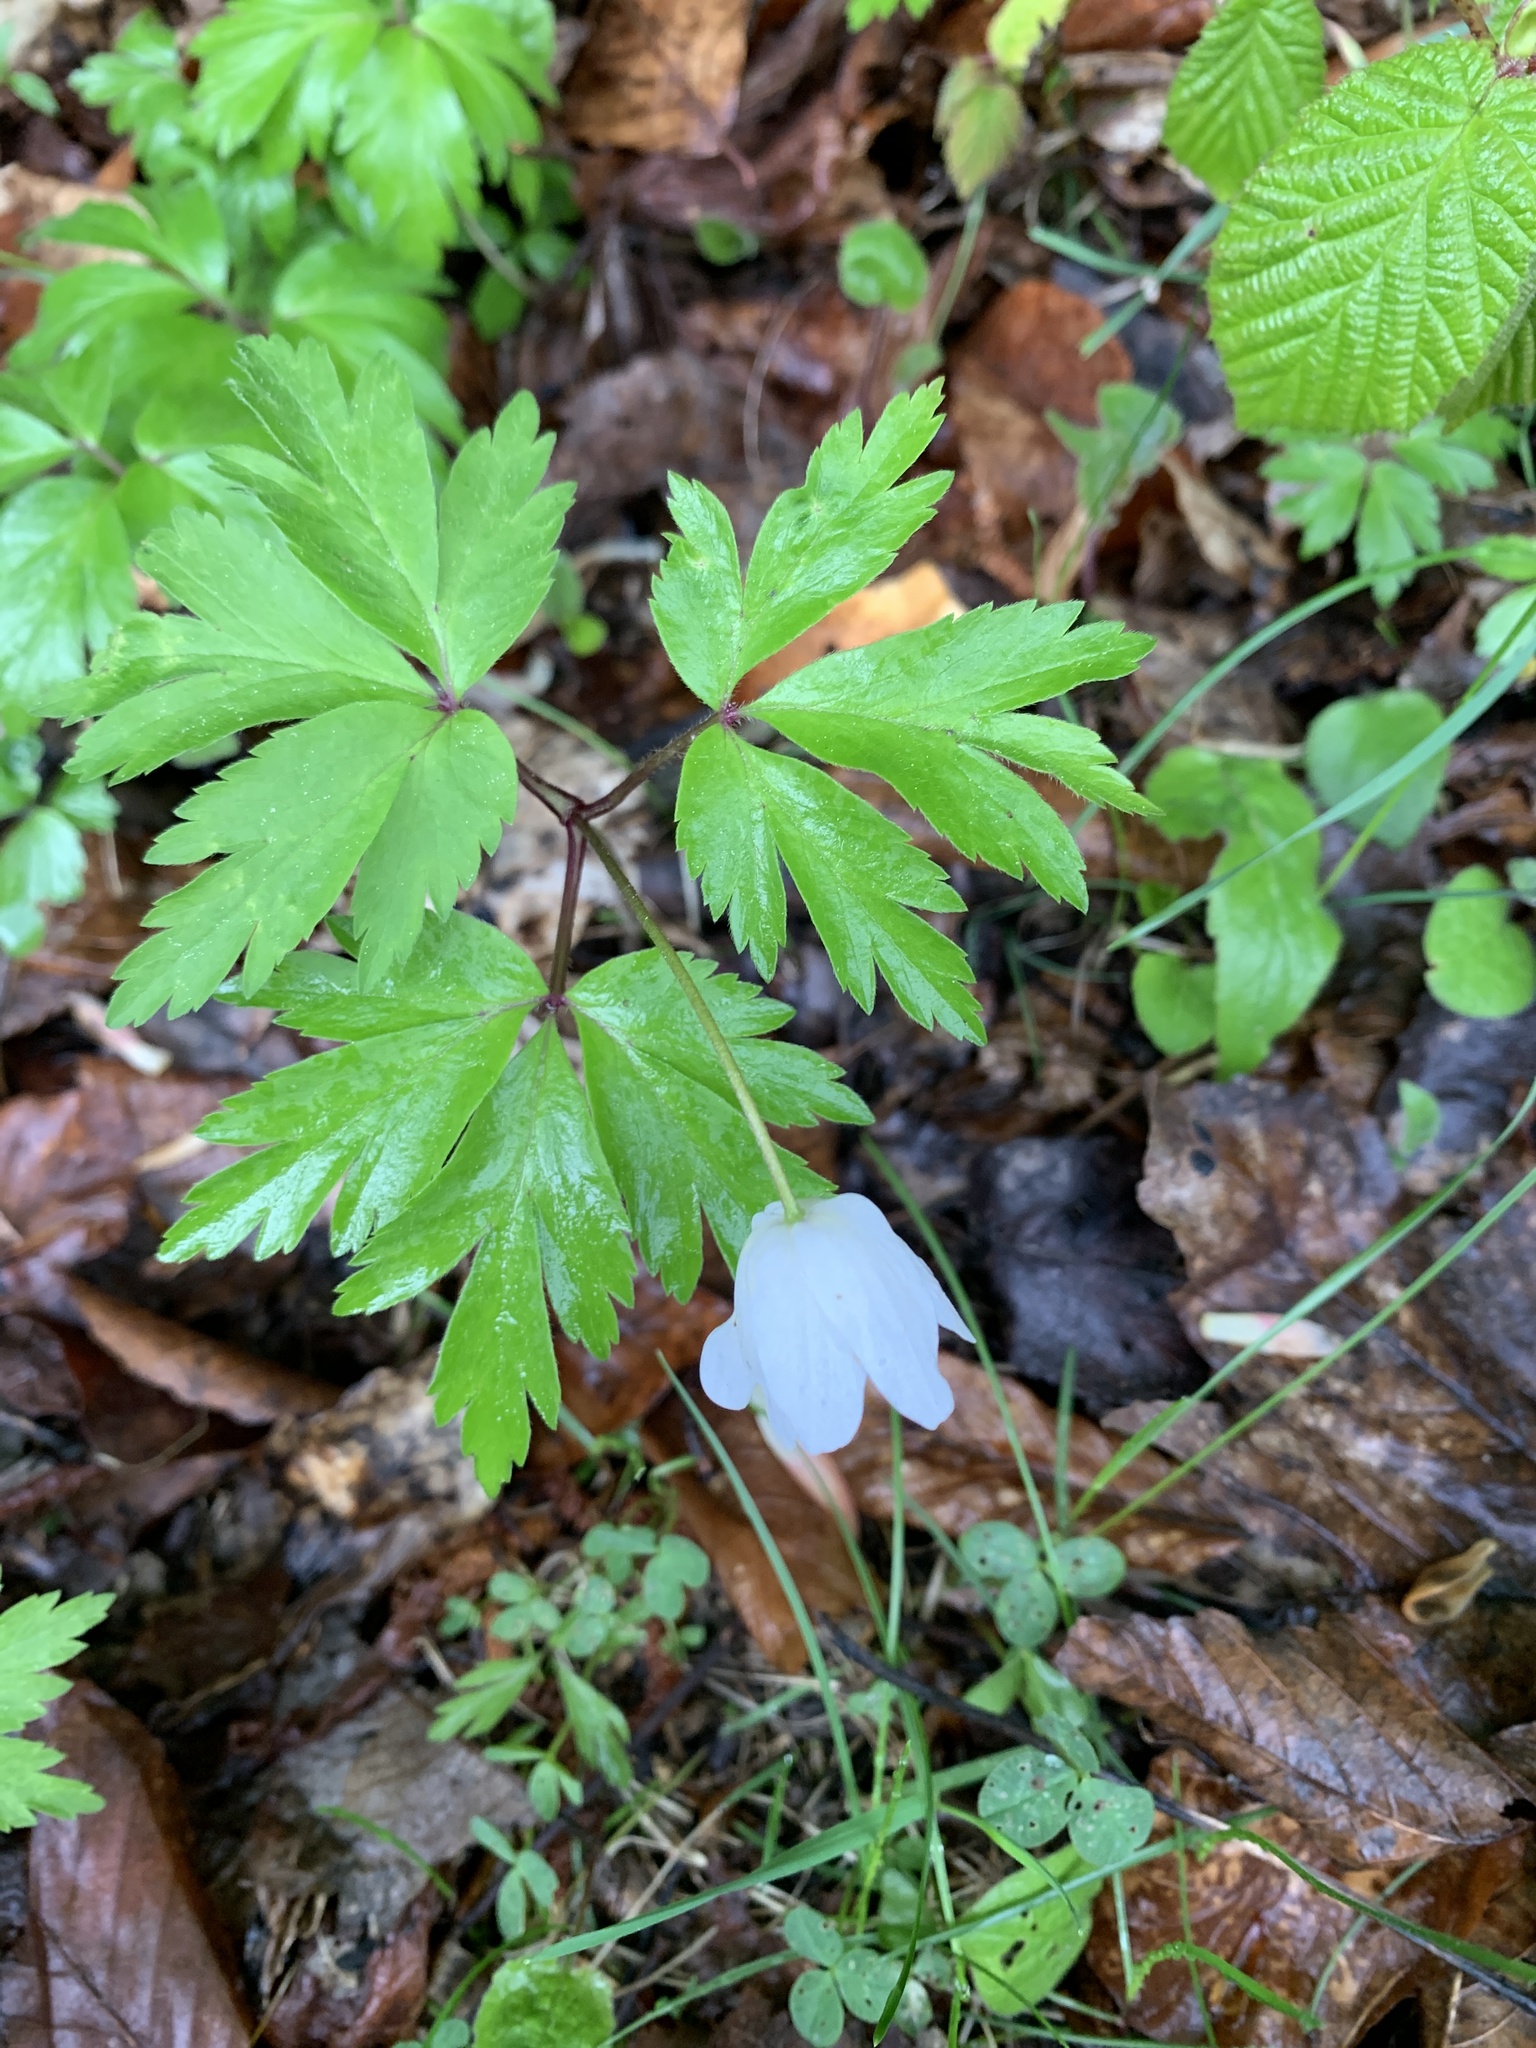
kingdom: Plantae
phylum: Tracheophyta
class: Magnoliopsida
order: Ranunculales
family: Ranunculaceae
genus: Anemone
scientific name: Anemone nemorosa
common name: Wood anemone
